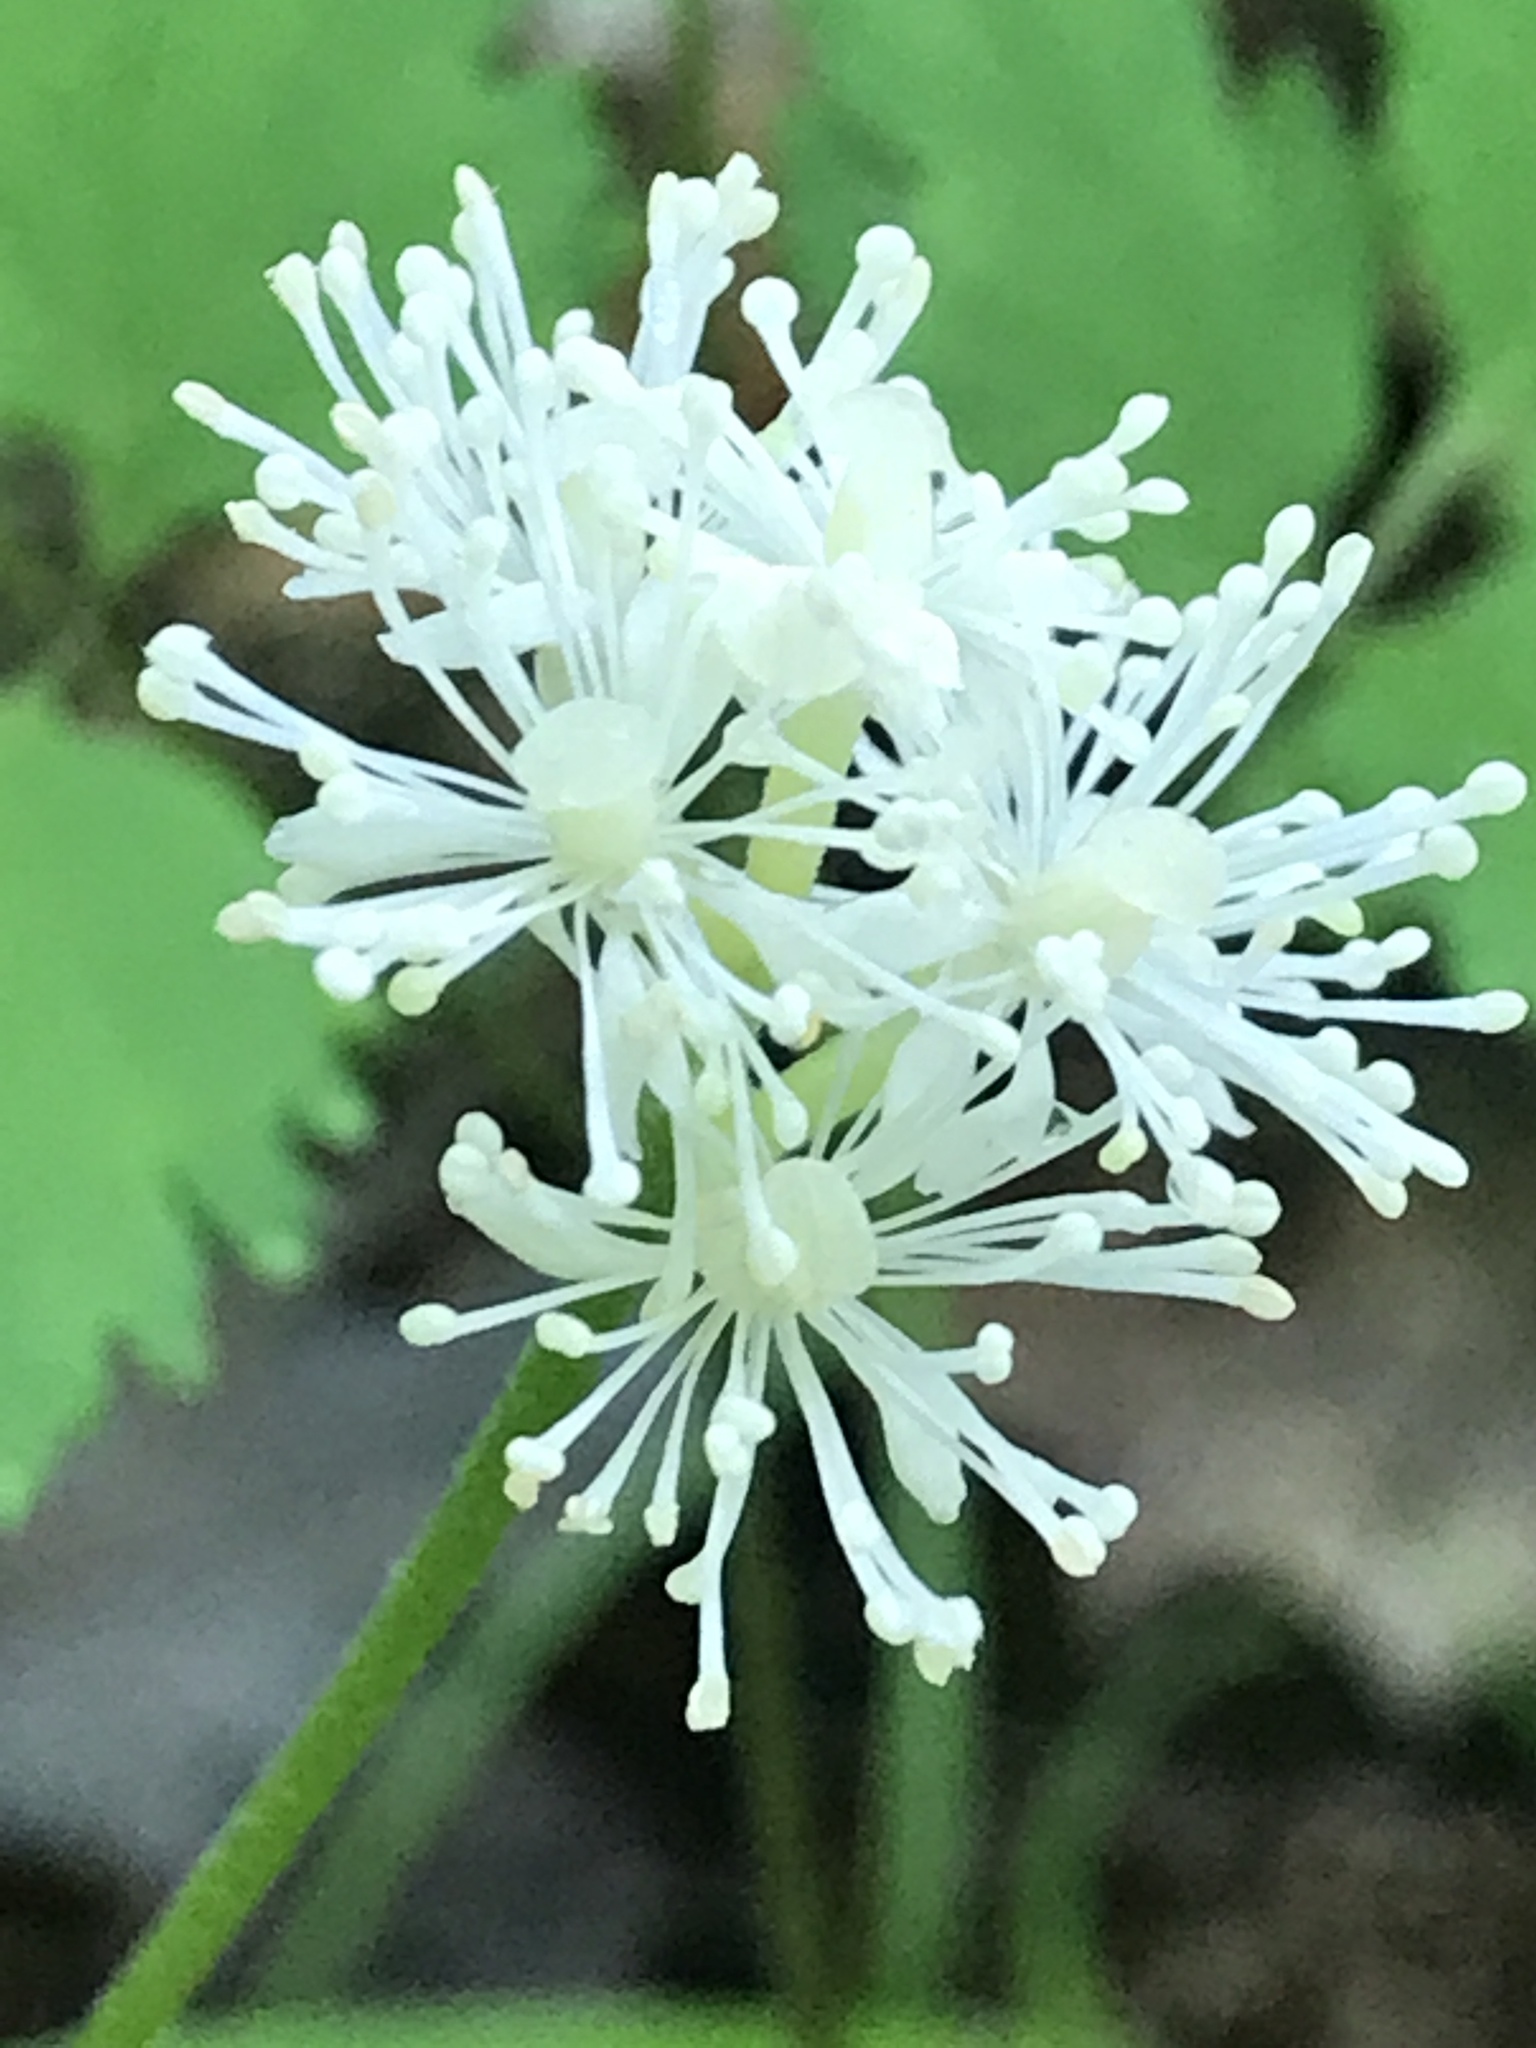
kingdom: Plantae
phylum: Tracheophyta
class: Magnoliopsida
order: Ranunculales
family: Ranunculaceae
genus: Actaea
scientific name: Actaea pachypoda
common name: Doll's-eyes
